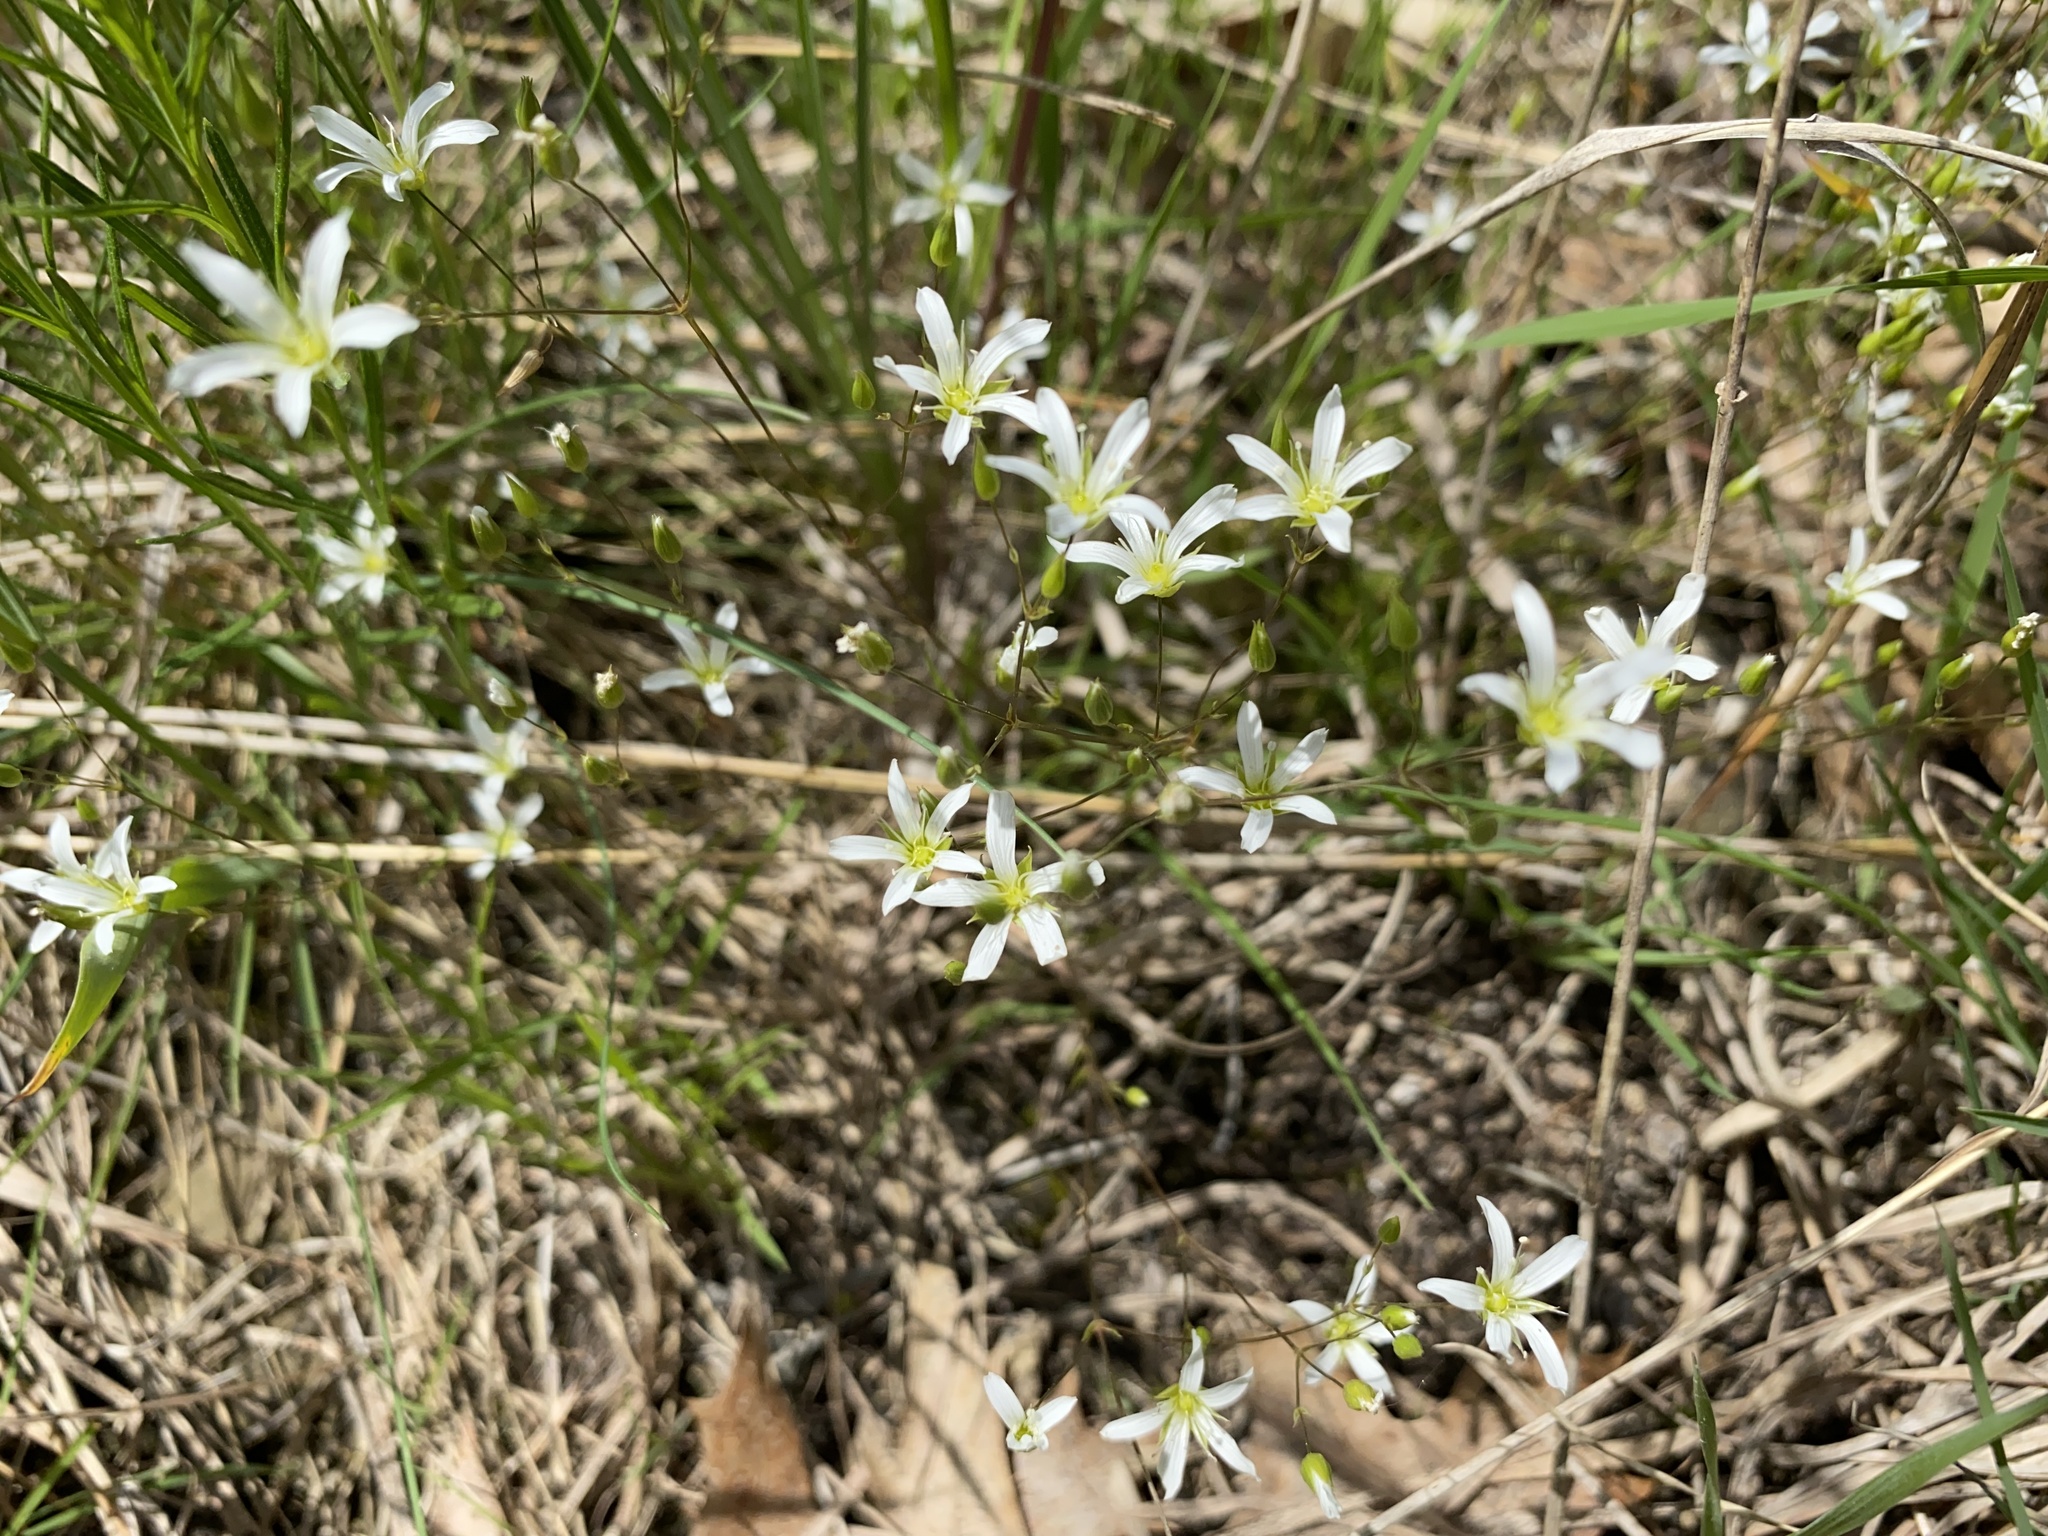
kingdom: Plantae
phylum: Tracheophyta
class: Magnoliopsida
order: Caryophyllales
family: Caryophyllaceae
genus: Sabulina
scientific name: Sabulina michauxii
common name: Michaux's stitchwort
